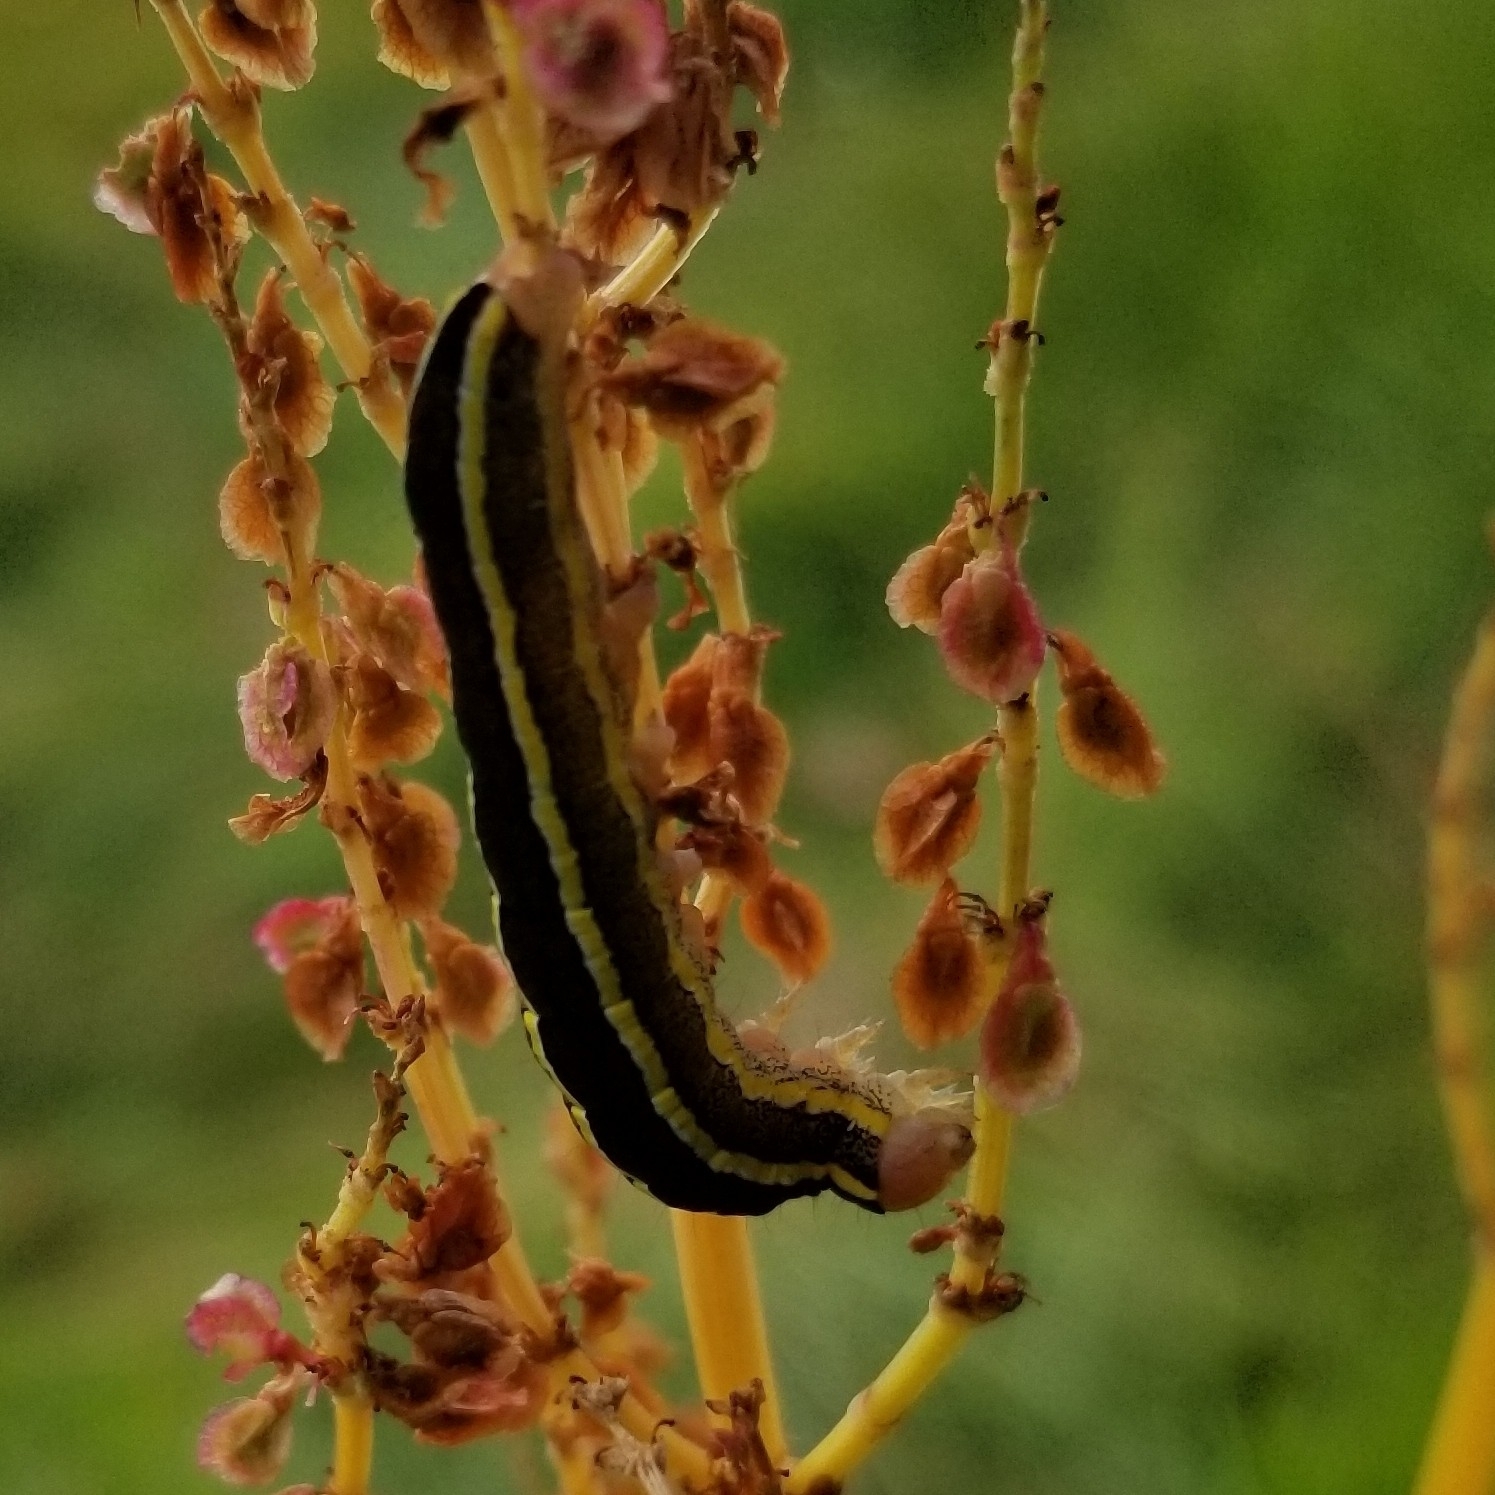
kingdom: Animalia
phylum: Arthropoda
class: Insecta
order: Lepidoptera
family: Noctuidae
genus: Ceramica
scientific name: Ceramica pisi
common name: Broom moth
